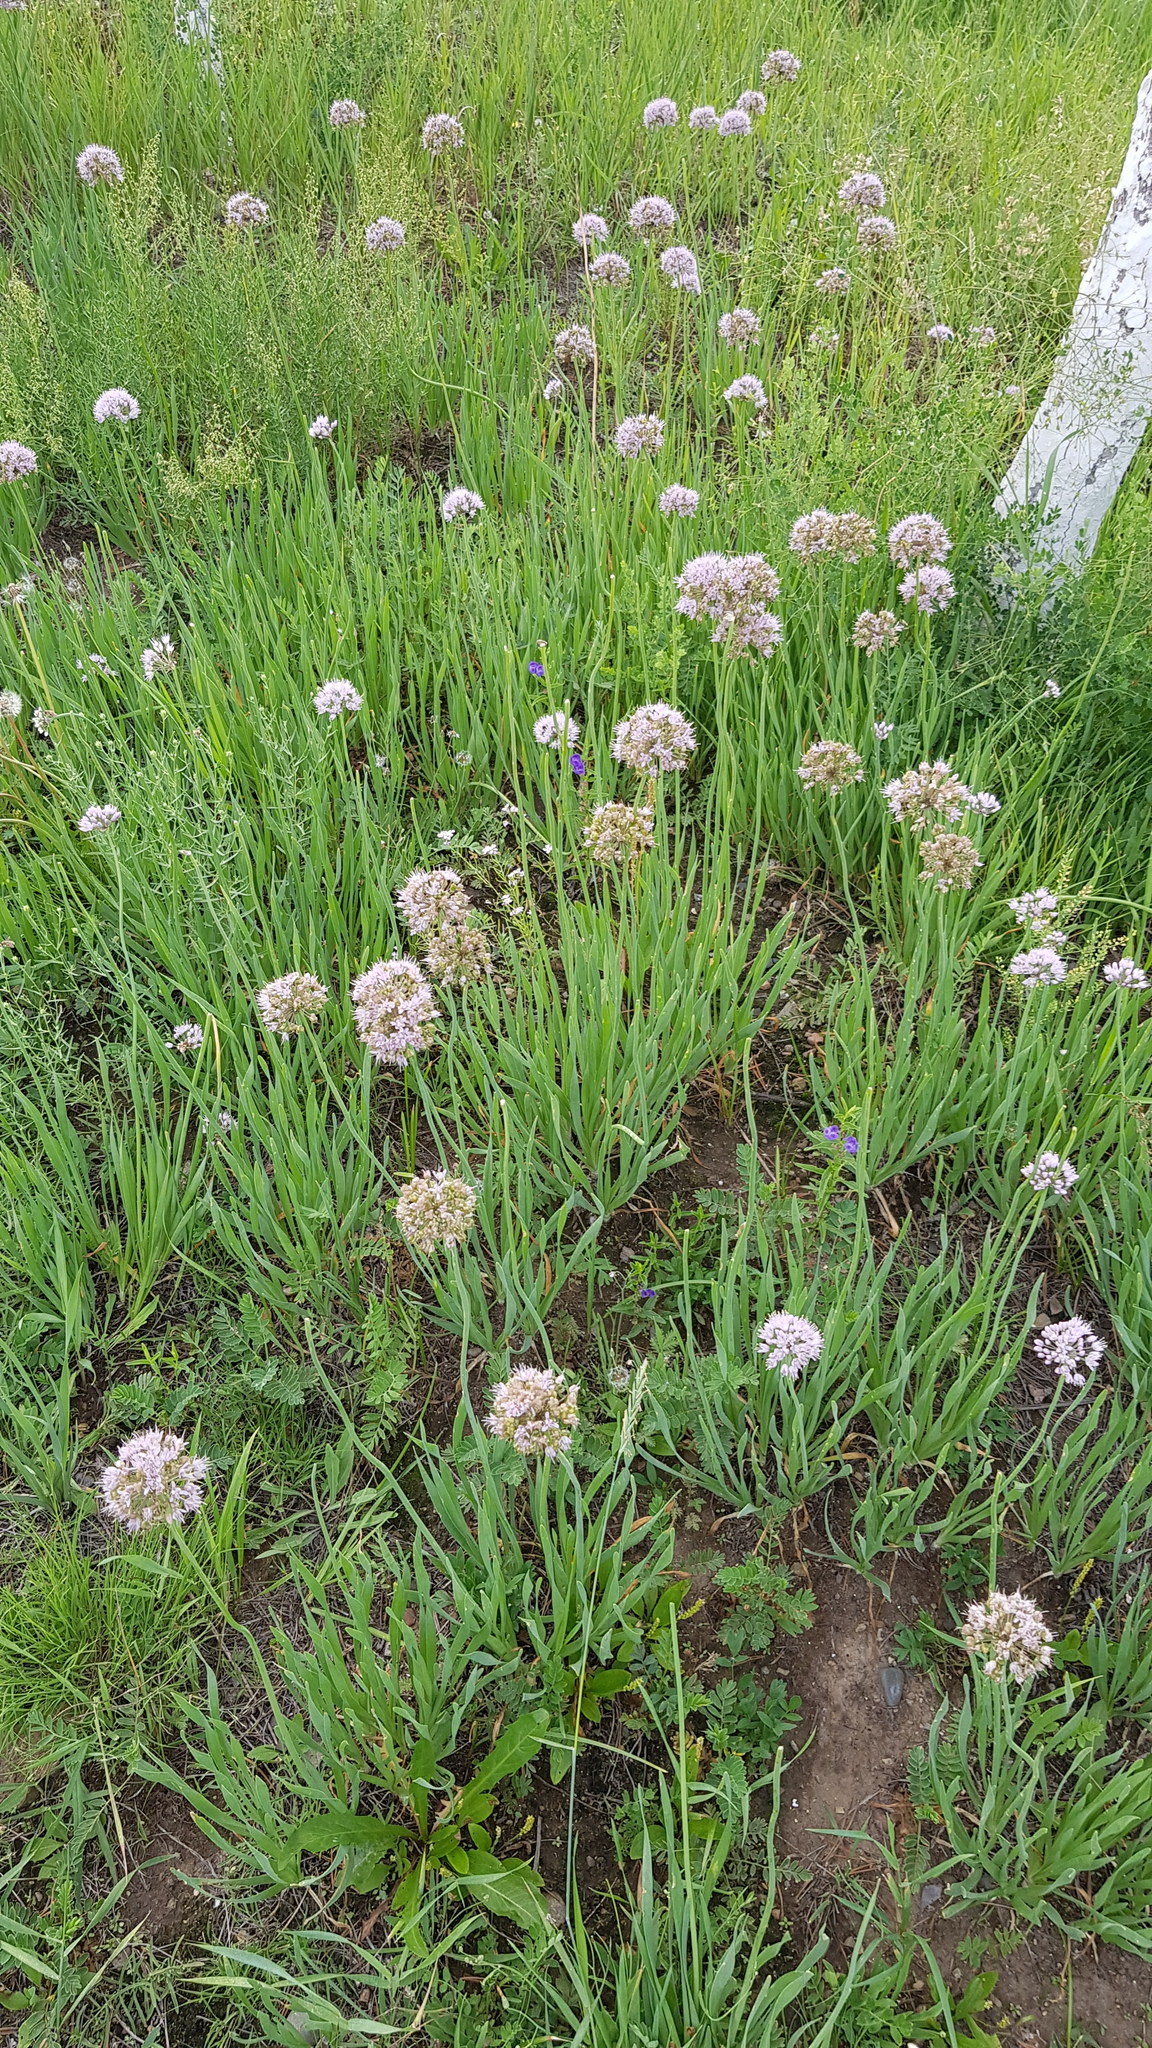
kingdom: Plantae
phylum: Tracheophyta
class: Liliopsida
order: Asparagales
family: Amaryllidaceae
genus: Allium
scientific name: Allium senescens
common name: German garlic
